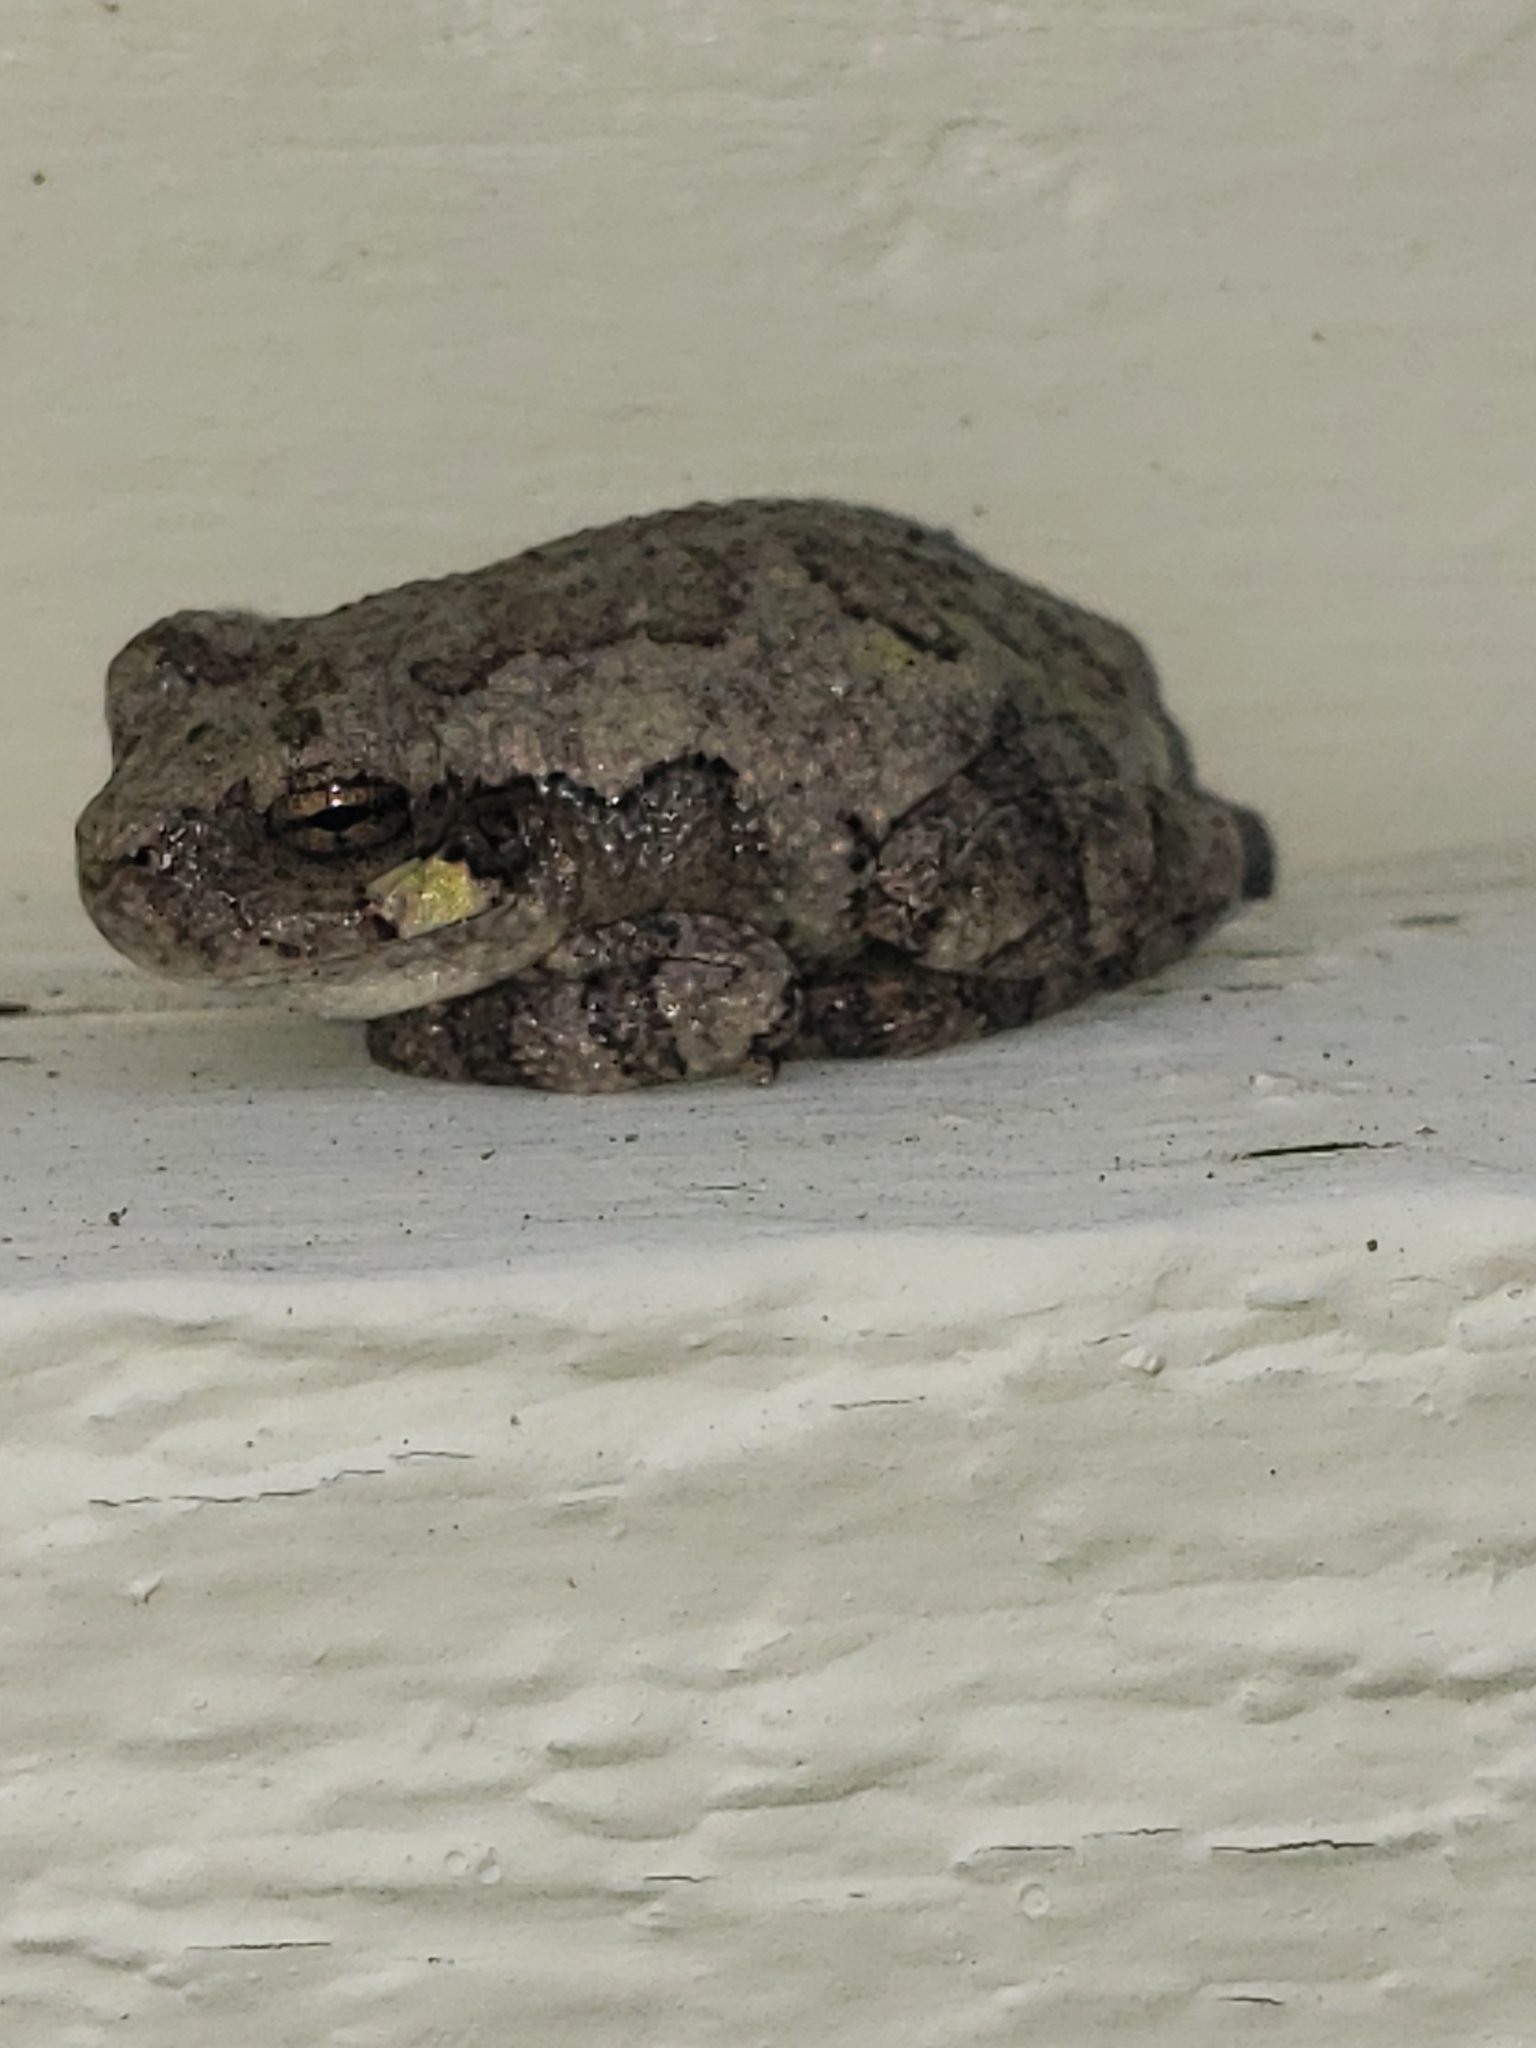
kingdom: Animalia
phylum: Chordata
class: Amphibia
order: Anura
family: Hylidae
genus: Hyla
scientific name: Hyla
